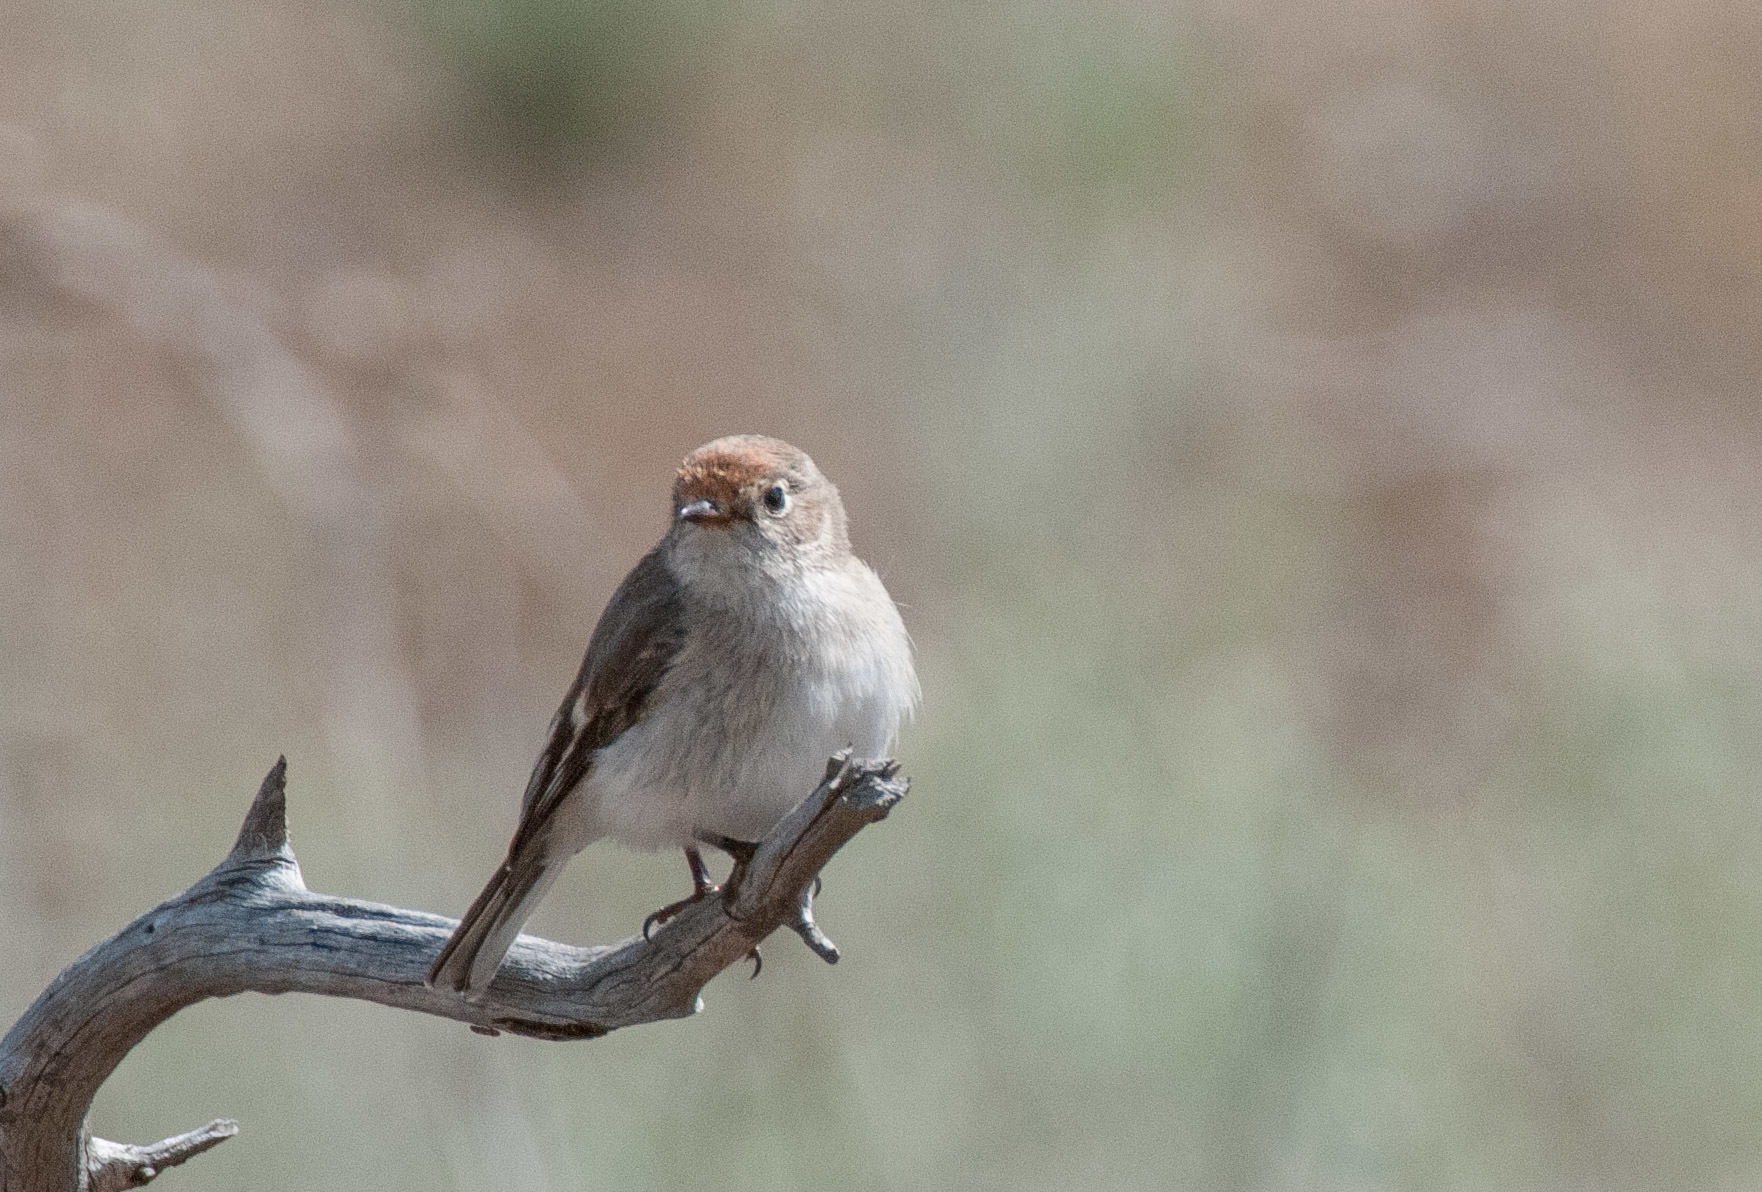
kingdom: Animalia
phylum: Chordata
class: Aves
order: Passeriformes
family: Petroicidae
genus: Petroica
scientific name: Petroica goodenovii
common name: Red-capped robin
